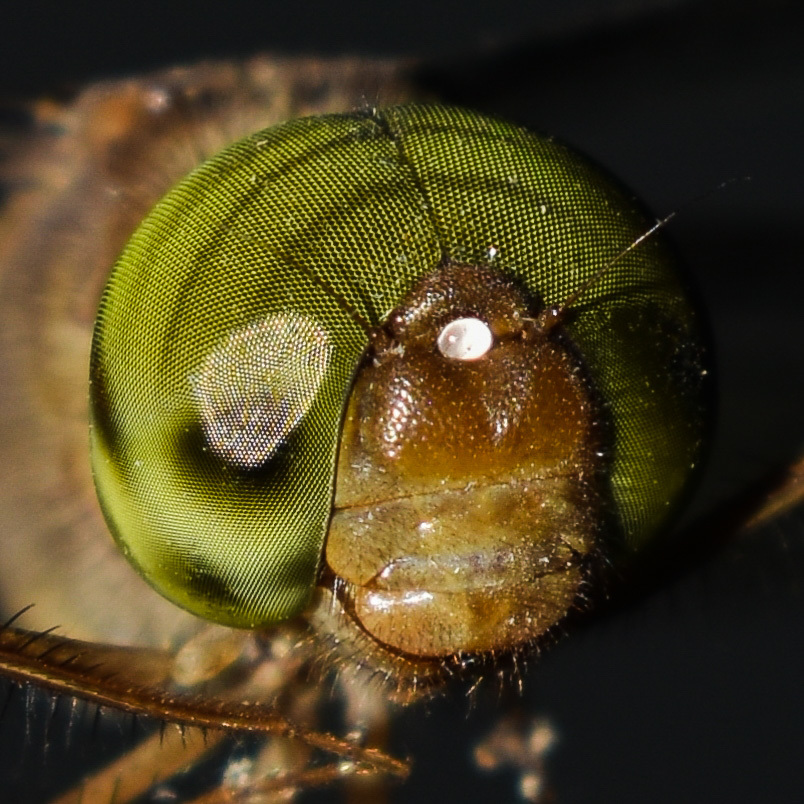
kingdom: Animalia
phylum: Arthropoda
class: Insecta
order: Odonata
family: Libellulidae
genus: Zyxomma
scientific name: Zyxomma petiolatum
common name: Dingy dusk-darter
